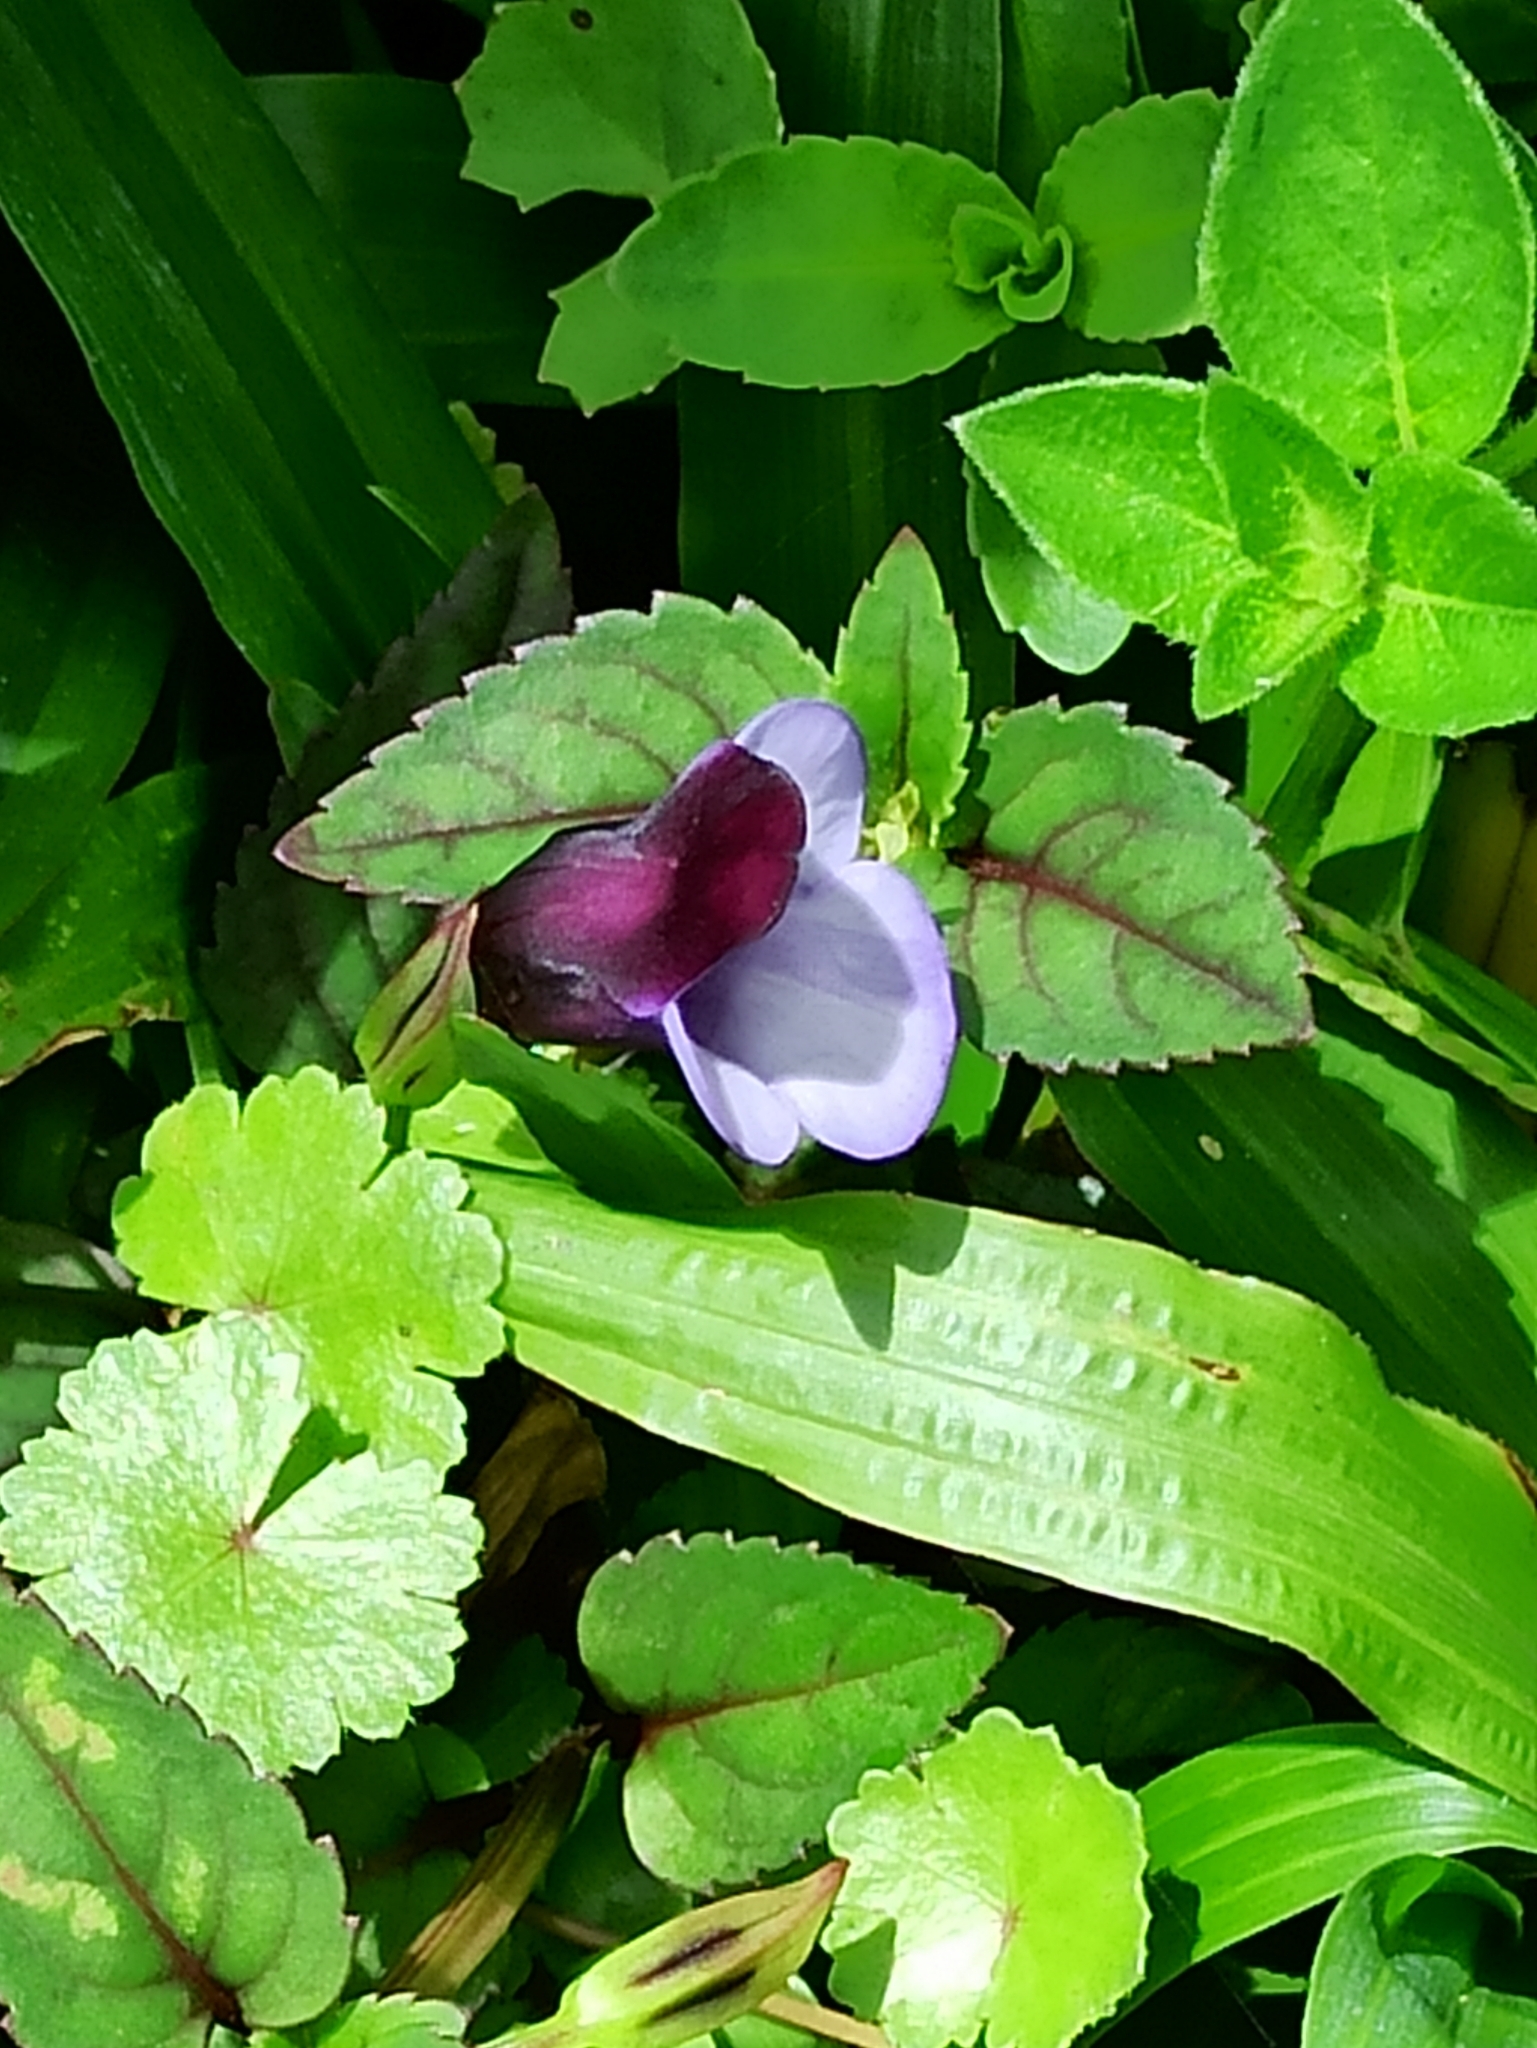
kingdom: Plantae
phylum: Tracheophyta
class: Magnoliopsida
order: Lamiales
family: Linderniaceae
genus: Torenia
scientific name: Torenia bicolor
